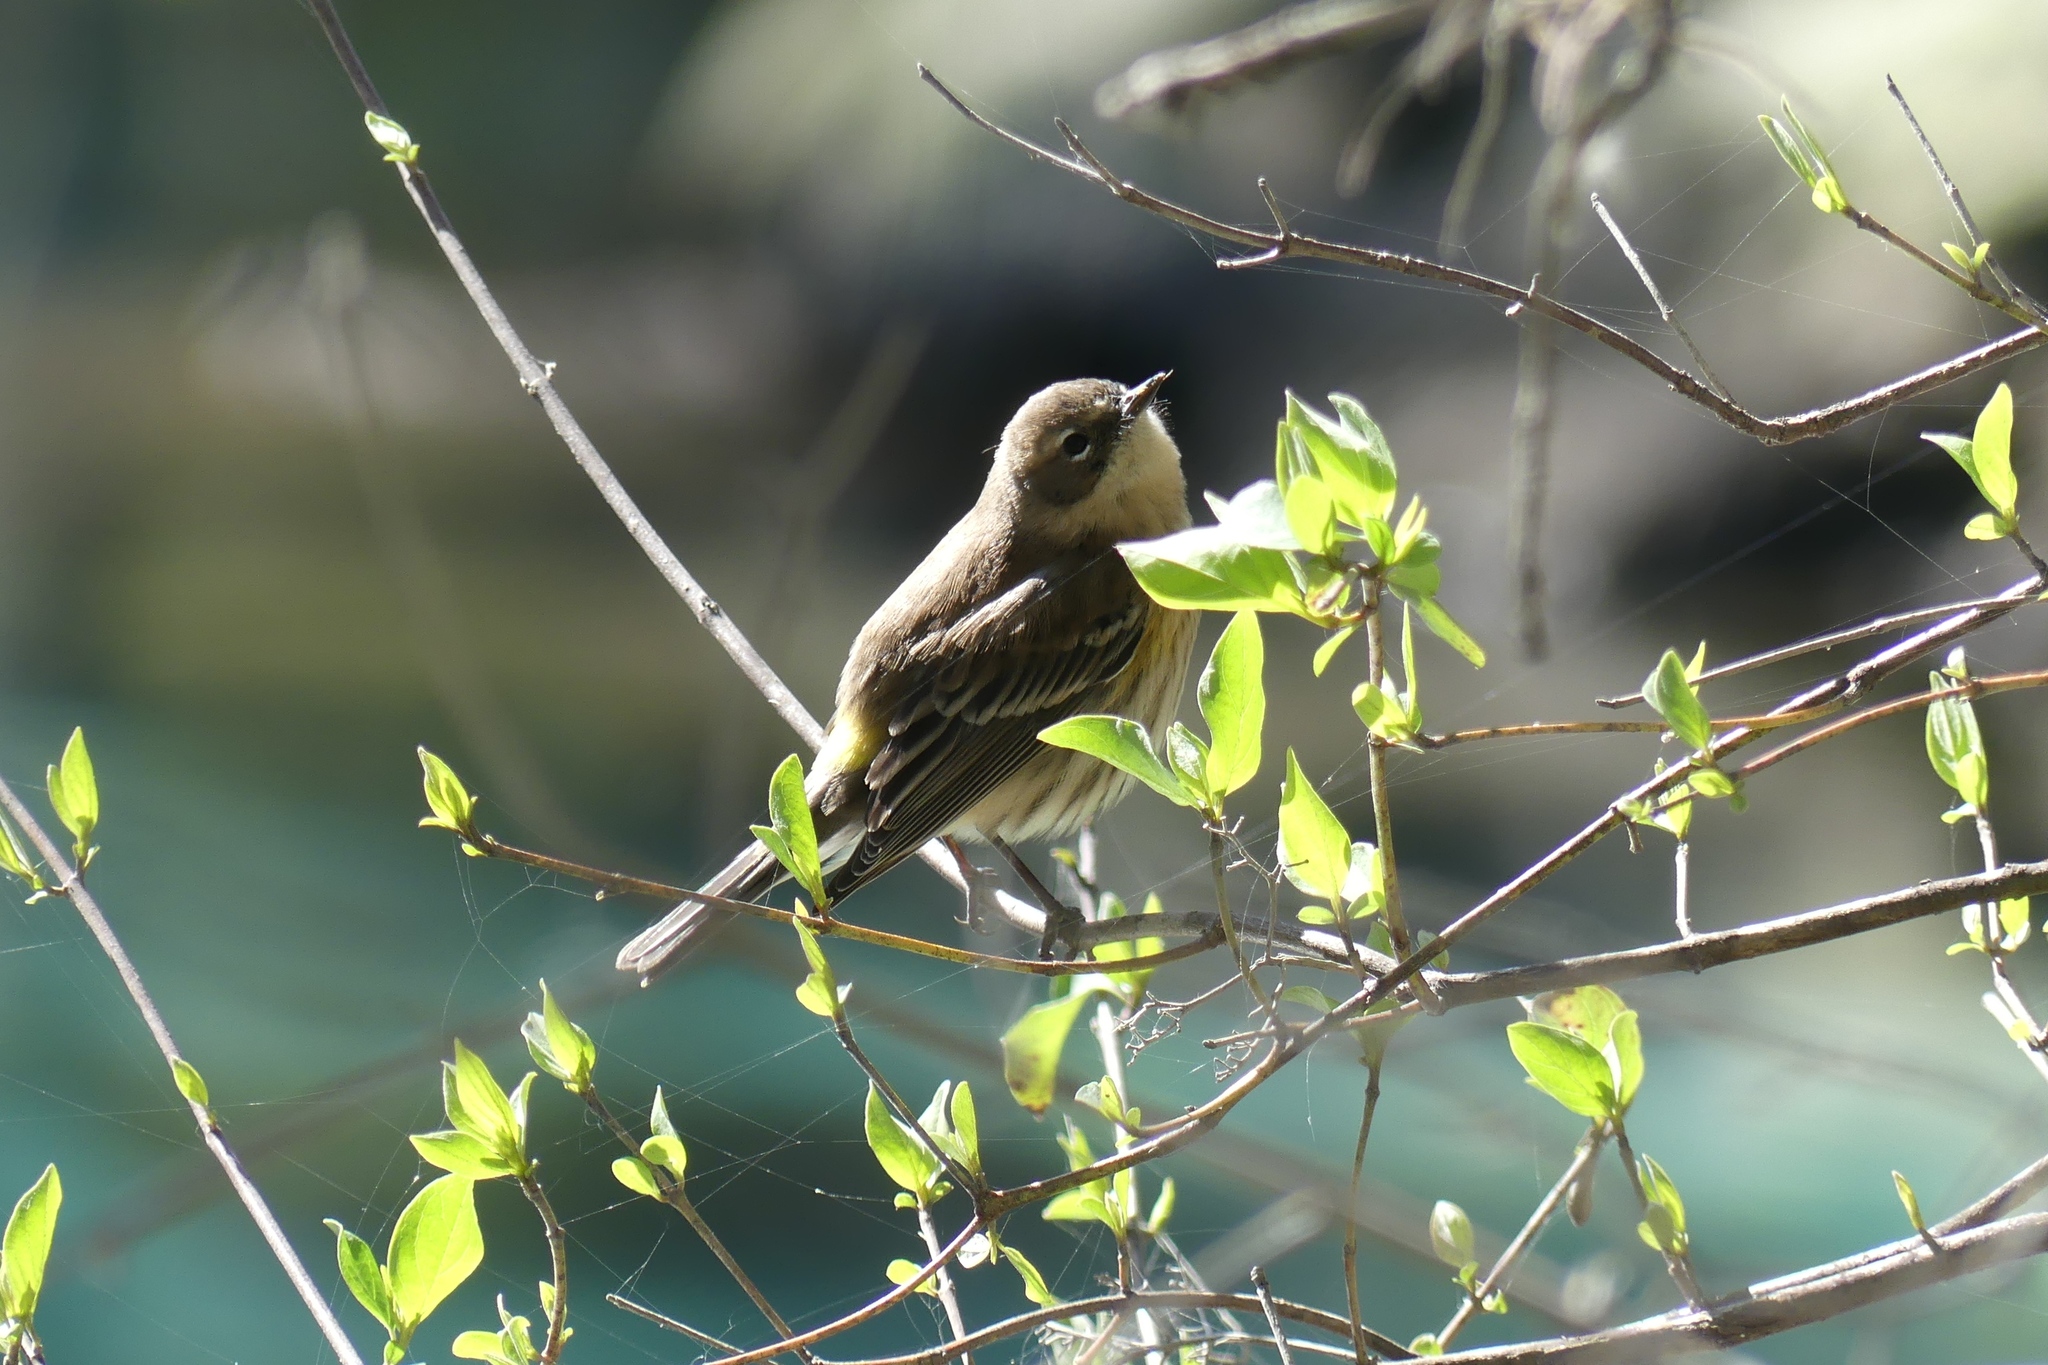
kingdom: Animalia
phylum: Chordata
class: Aves
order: Passeriformes
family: Parulidae
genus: Setophaga
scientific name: Setophaga coronata
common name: Myrtle warbler
